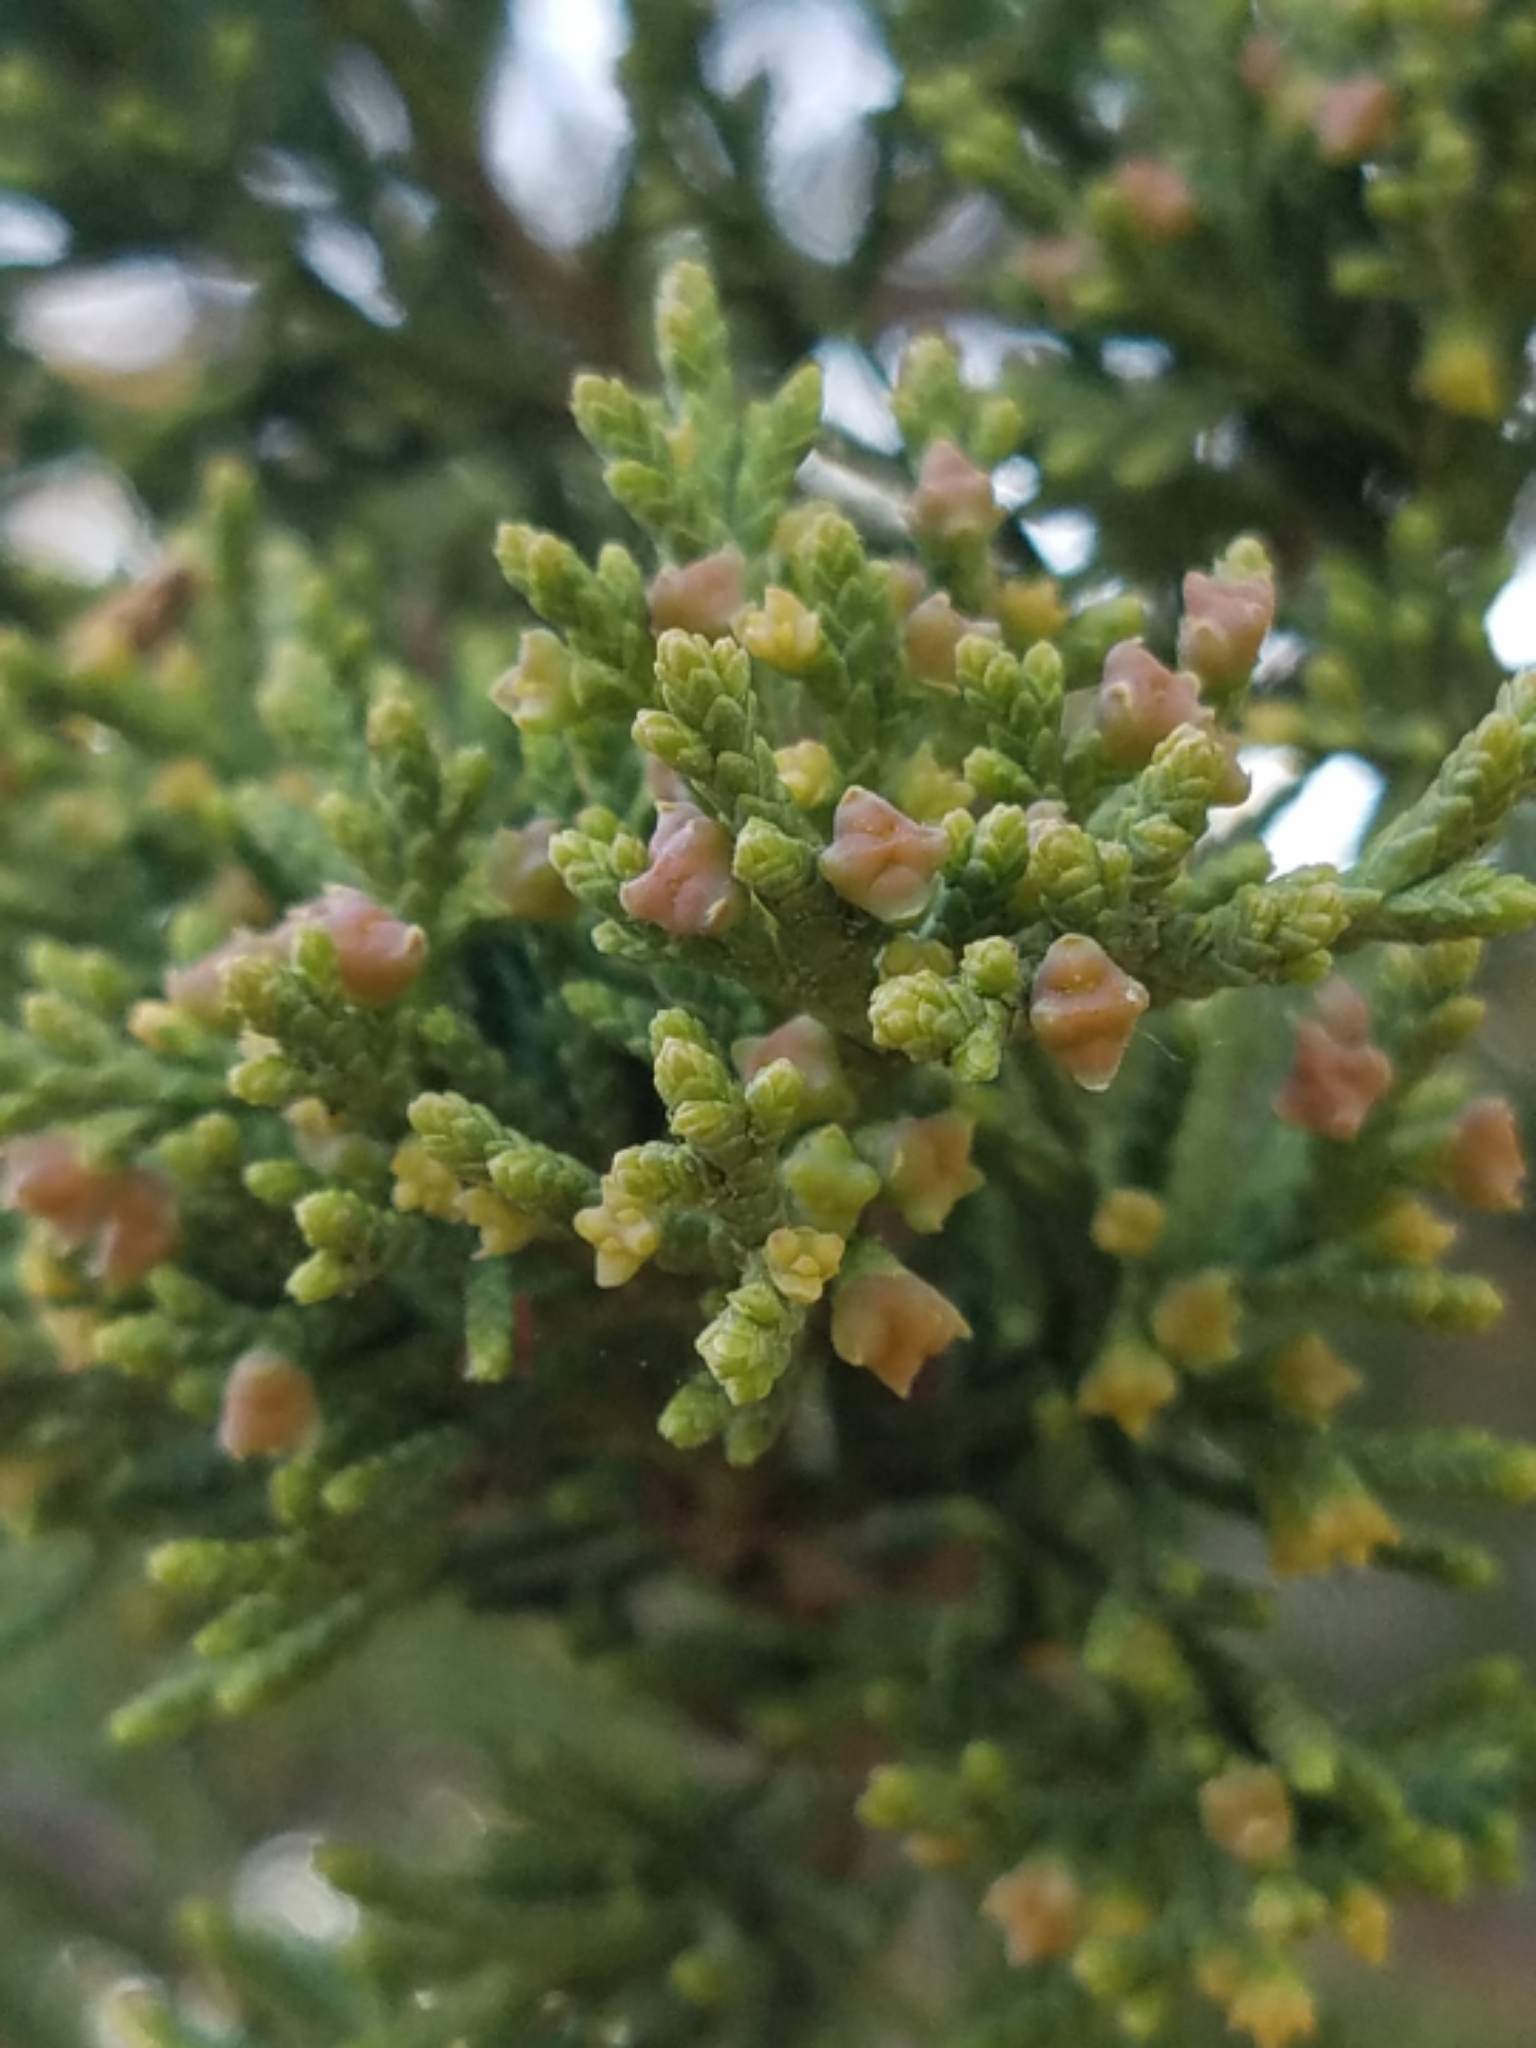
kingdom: Plantae
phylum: Tracheophyta
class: Pinopsida
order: Pinales
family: Cupressaceae
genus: Juniperus
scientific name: Juniperus virginiana
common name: Red juniper
